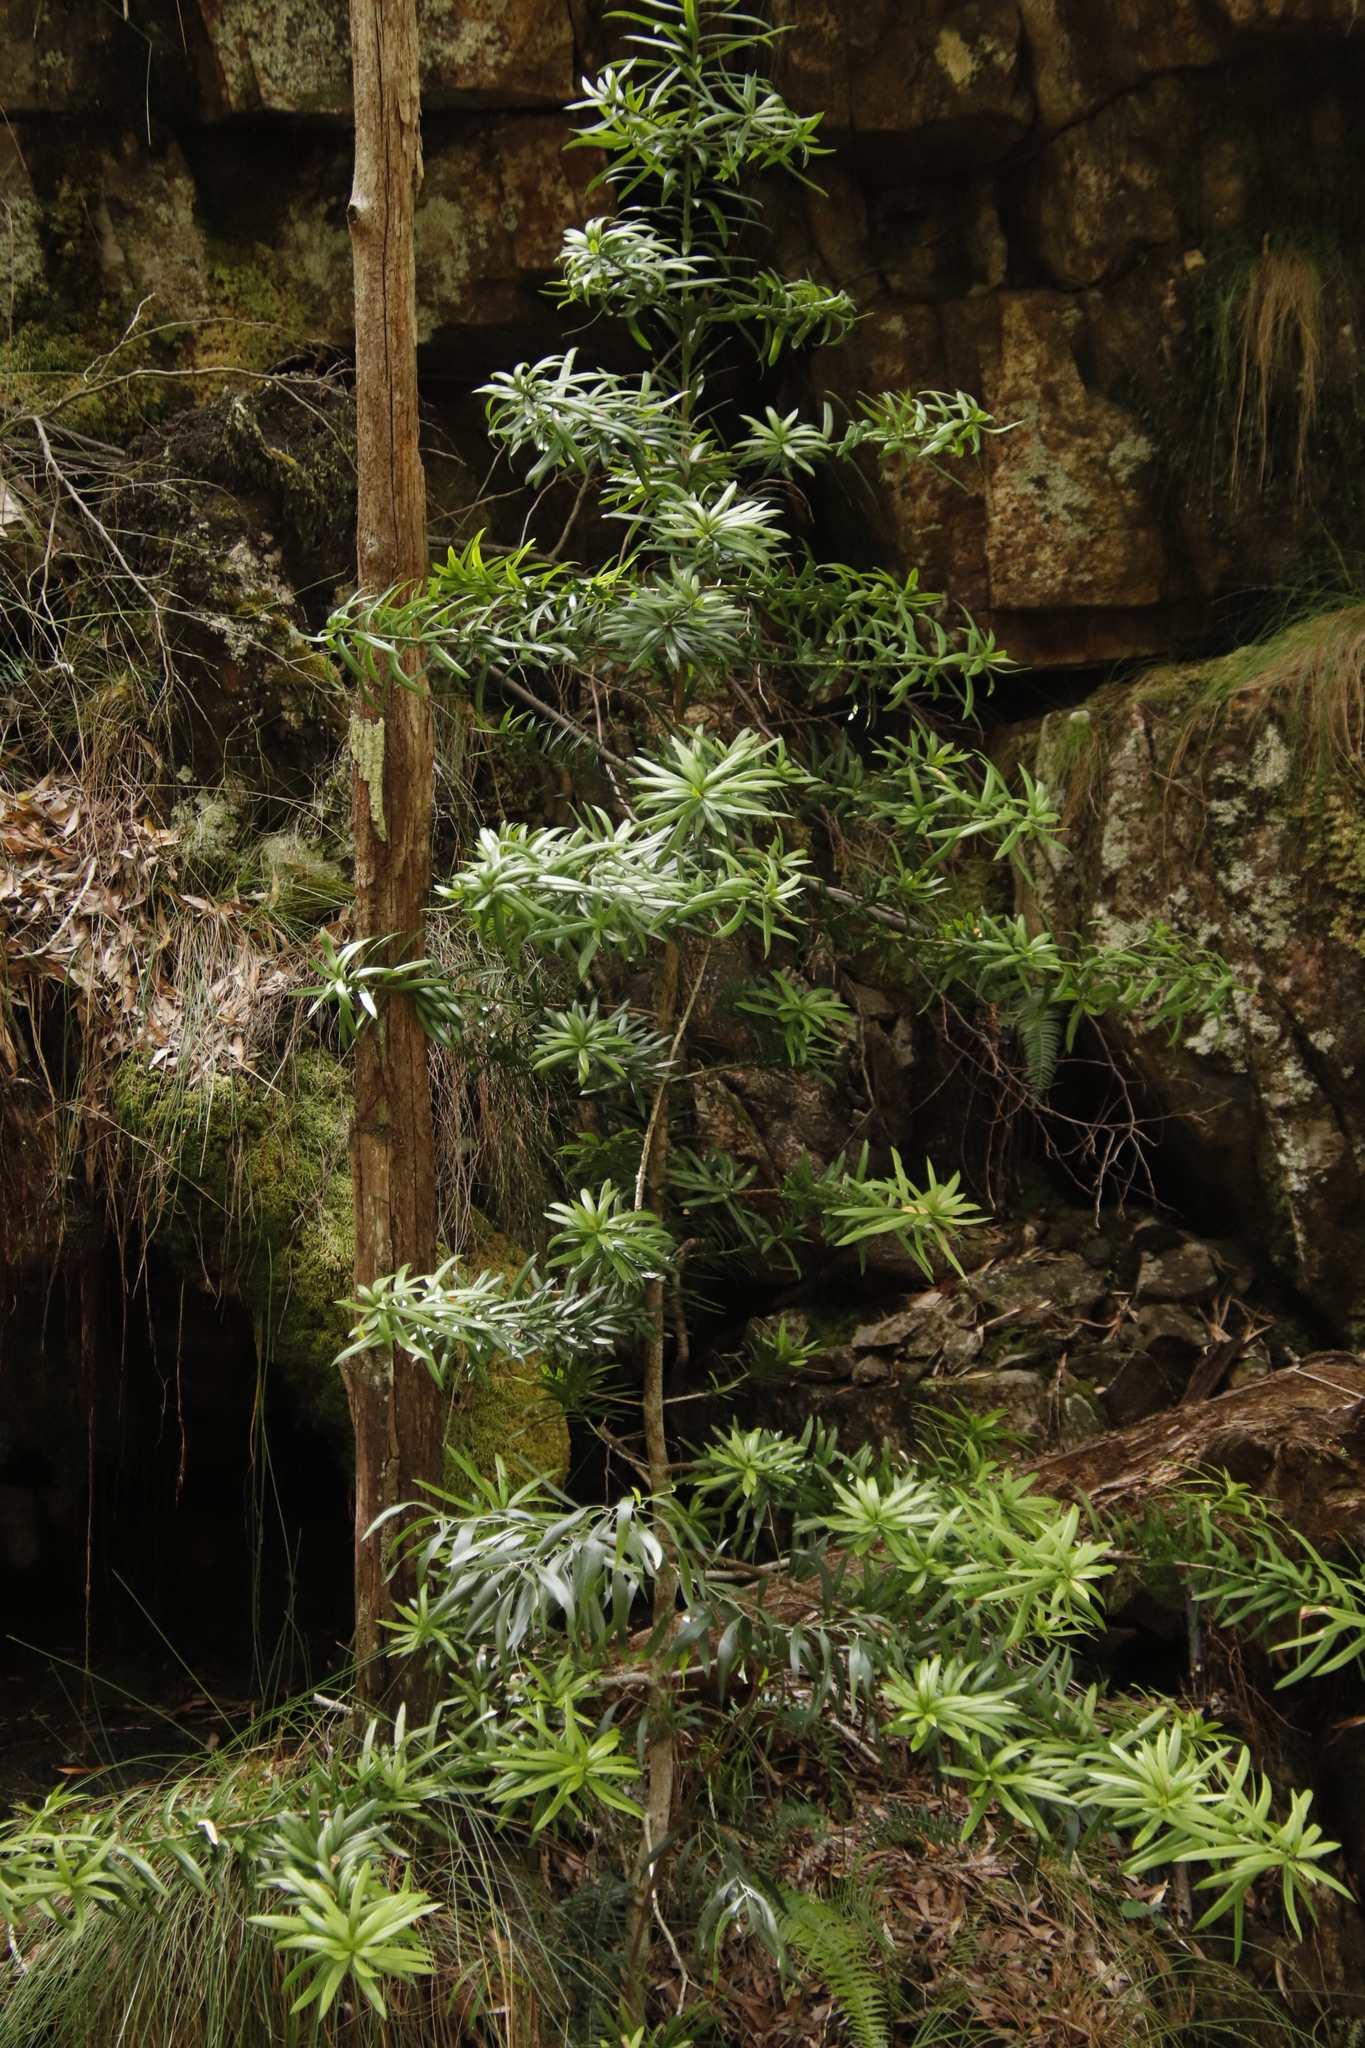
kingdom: Plantae
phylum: Tracheophyta
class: Pinopsida
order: Pinales
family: Podocarpaceae
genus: Podocarpus
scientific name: Podocarpus latifolius
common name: True yellowwood
